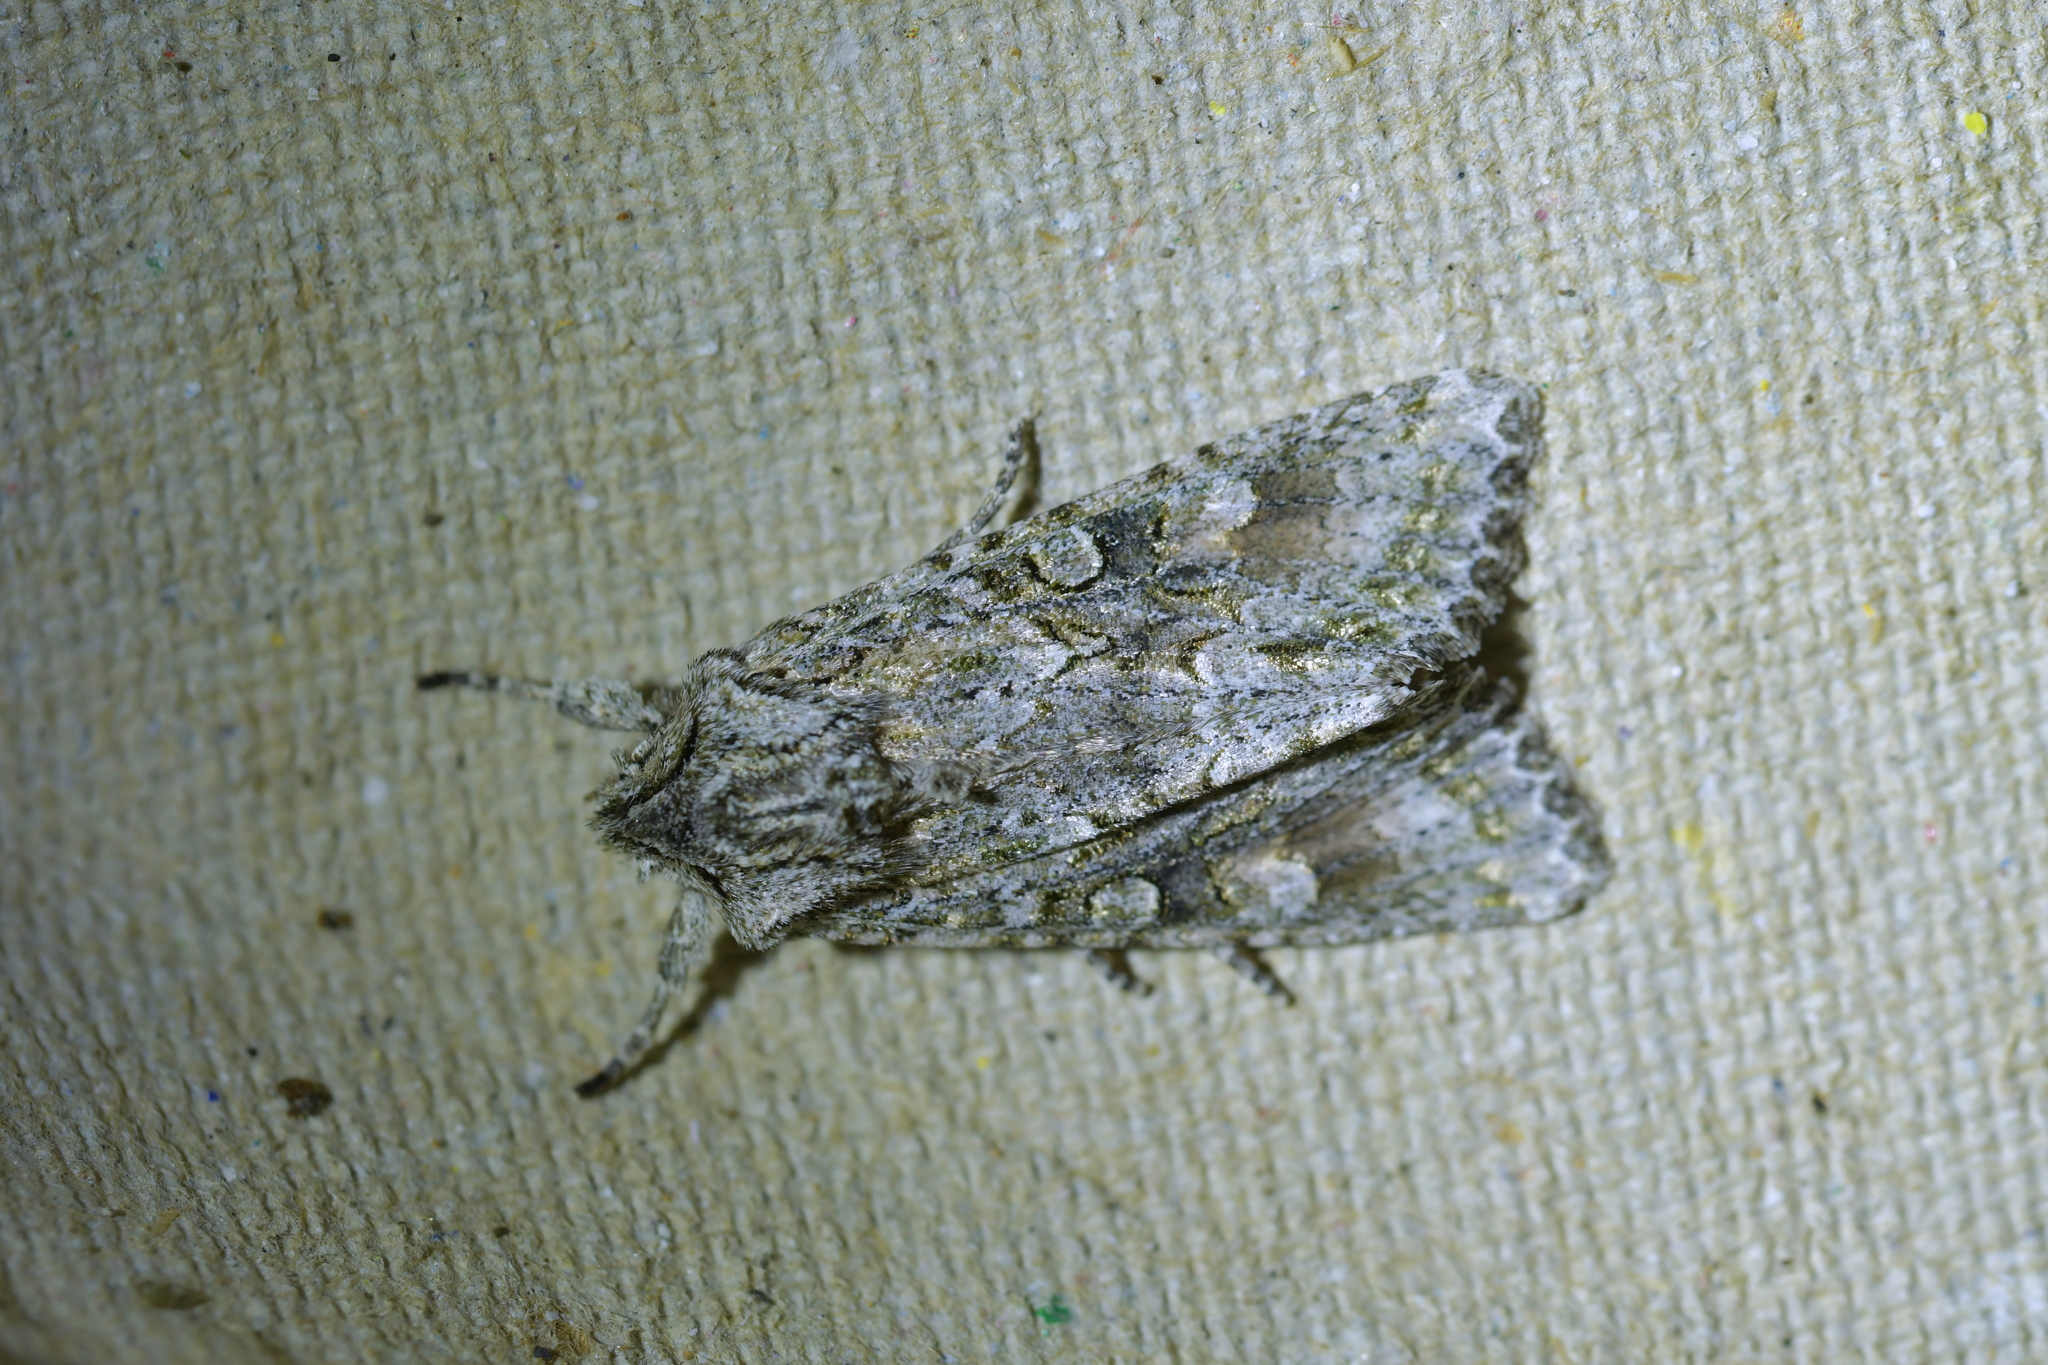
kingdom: Animalia
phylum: Arthropoda
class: Insecta
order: Lepidoptera
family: Noctuidae
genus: Ichneutica
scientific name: Ichneutica mutans
